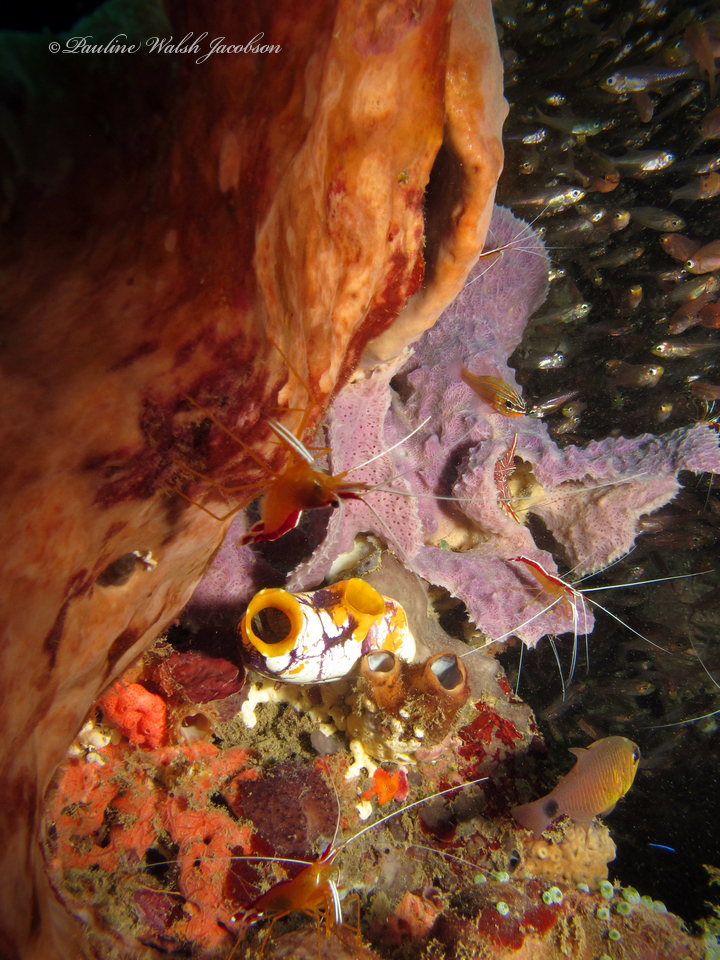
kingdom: Animalia
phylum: Arthropoda
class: Malacostraca
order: Decapoda
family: Lysmatidae
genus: Lysmata
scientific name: Lysmata amboinensis
